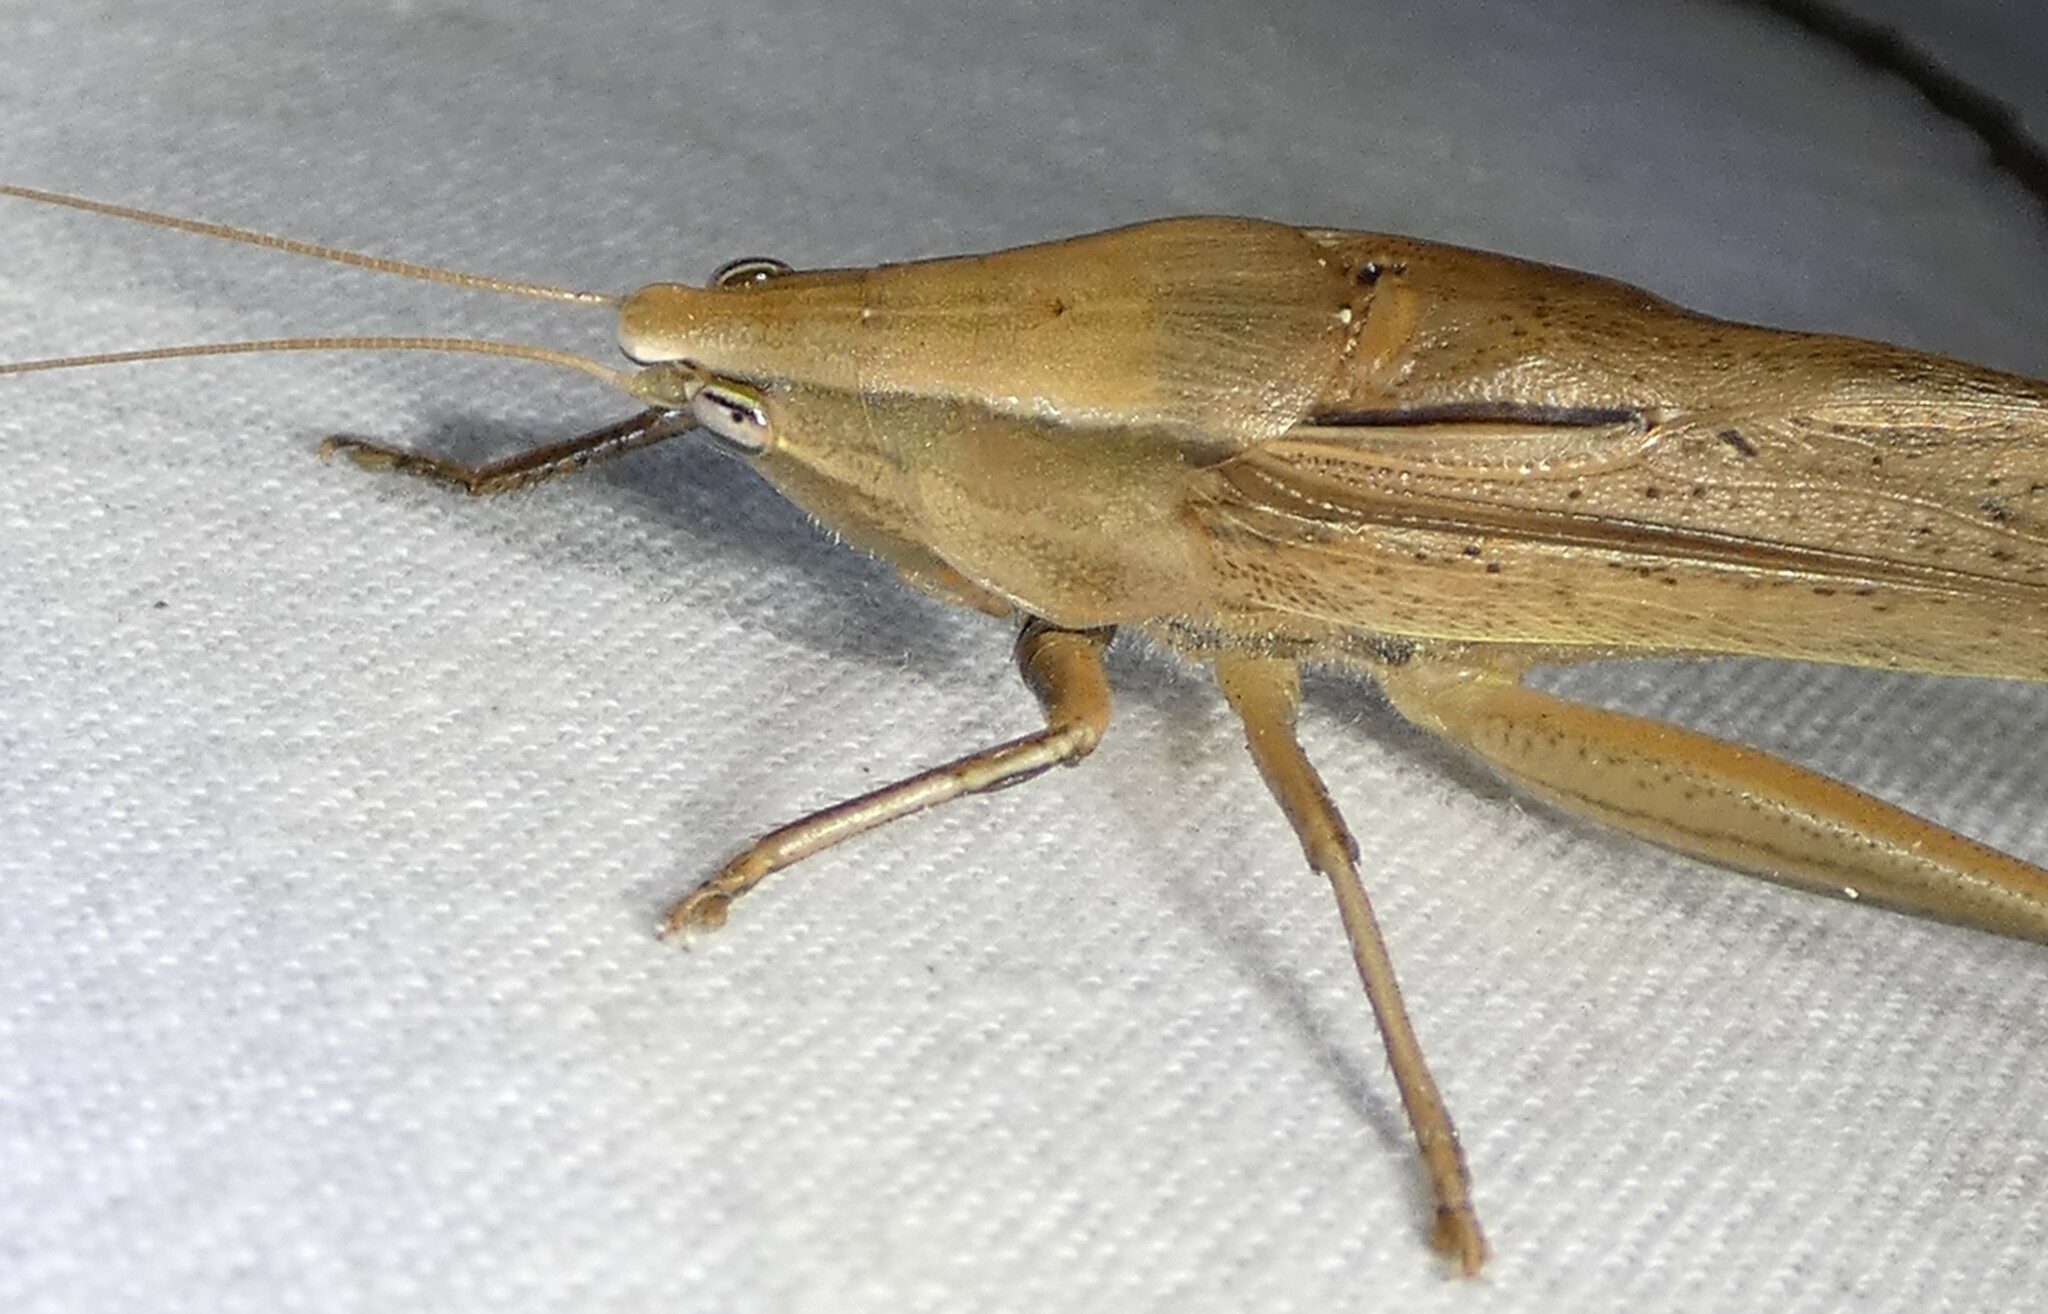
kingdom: Animalia
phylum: Arthropoda
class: Insecta
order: Orthoptera
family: Tettigoniidae
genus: Neoconocephalus
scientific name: Neoconocephalus triops
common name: Broad-tipped conehead
